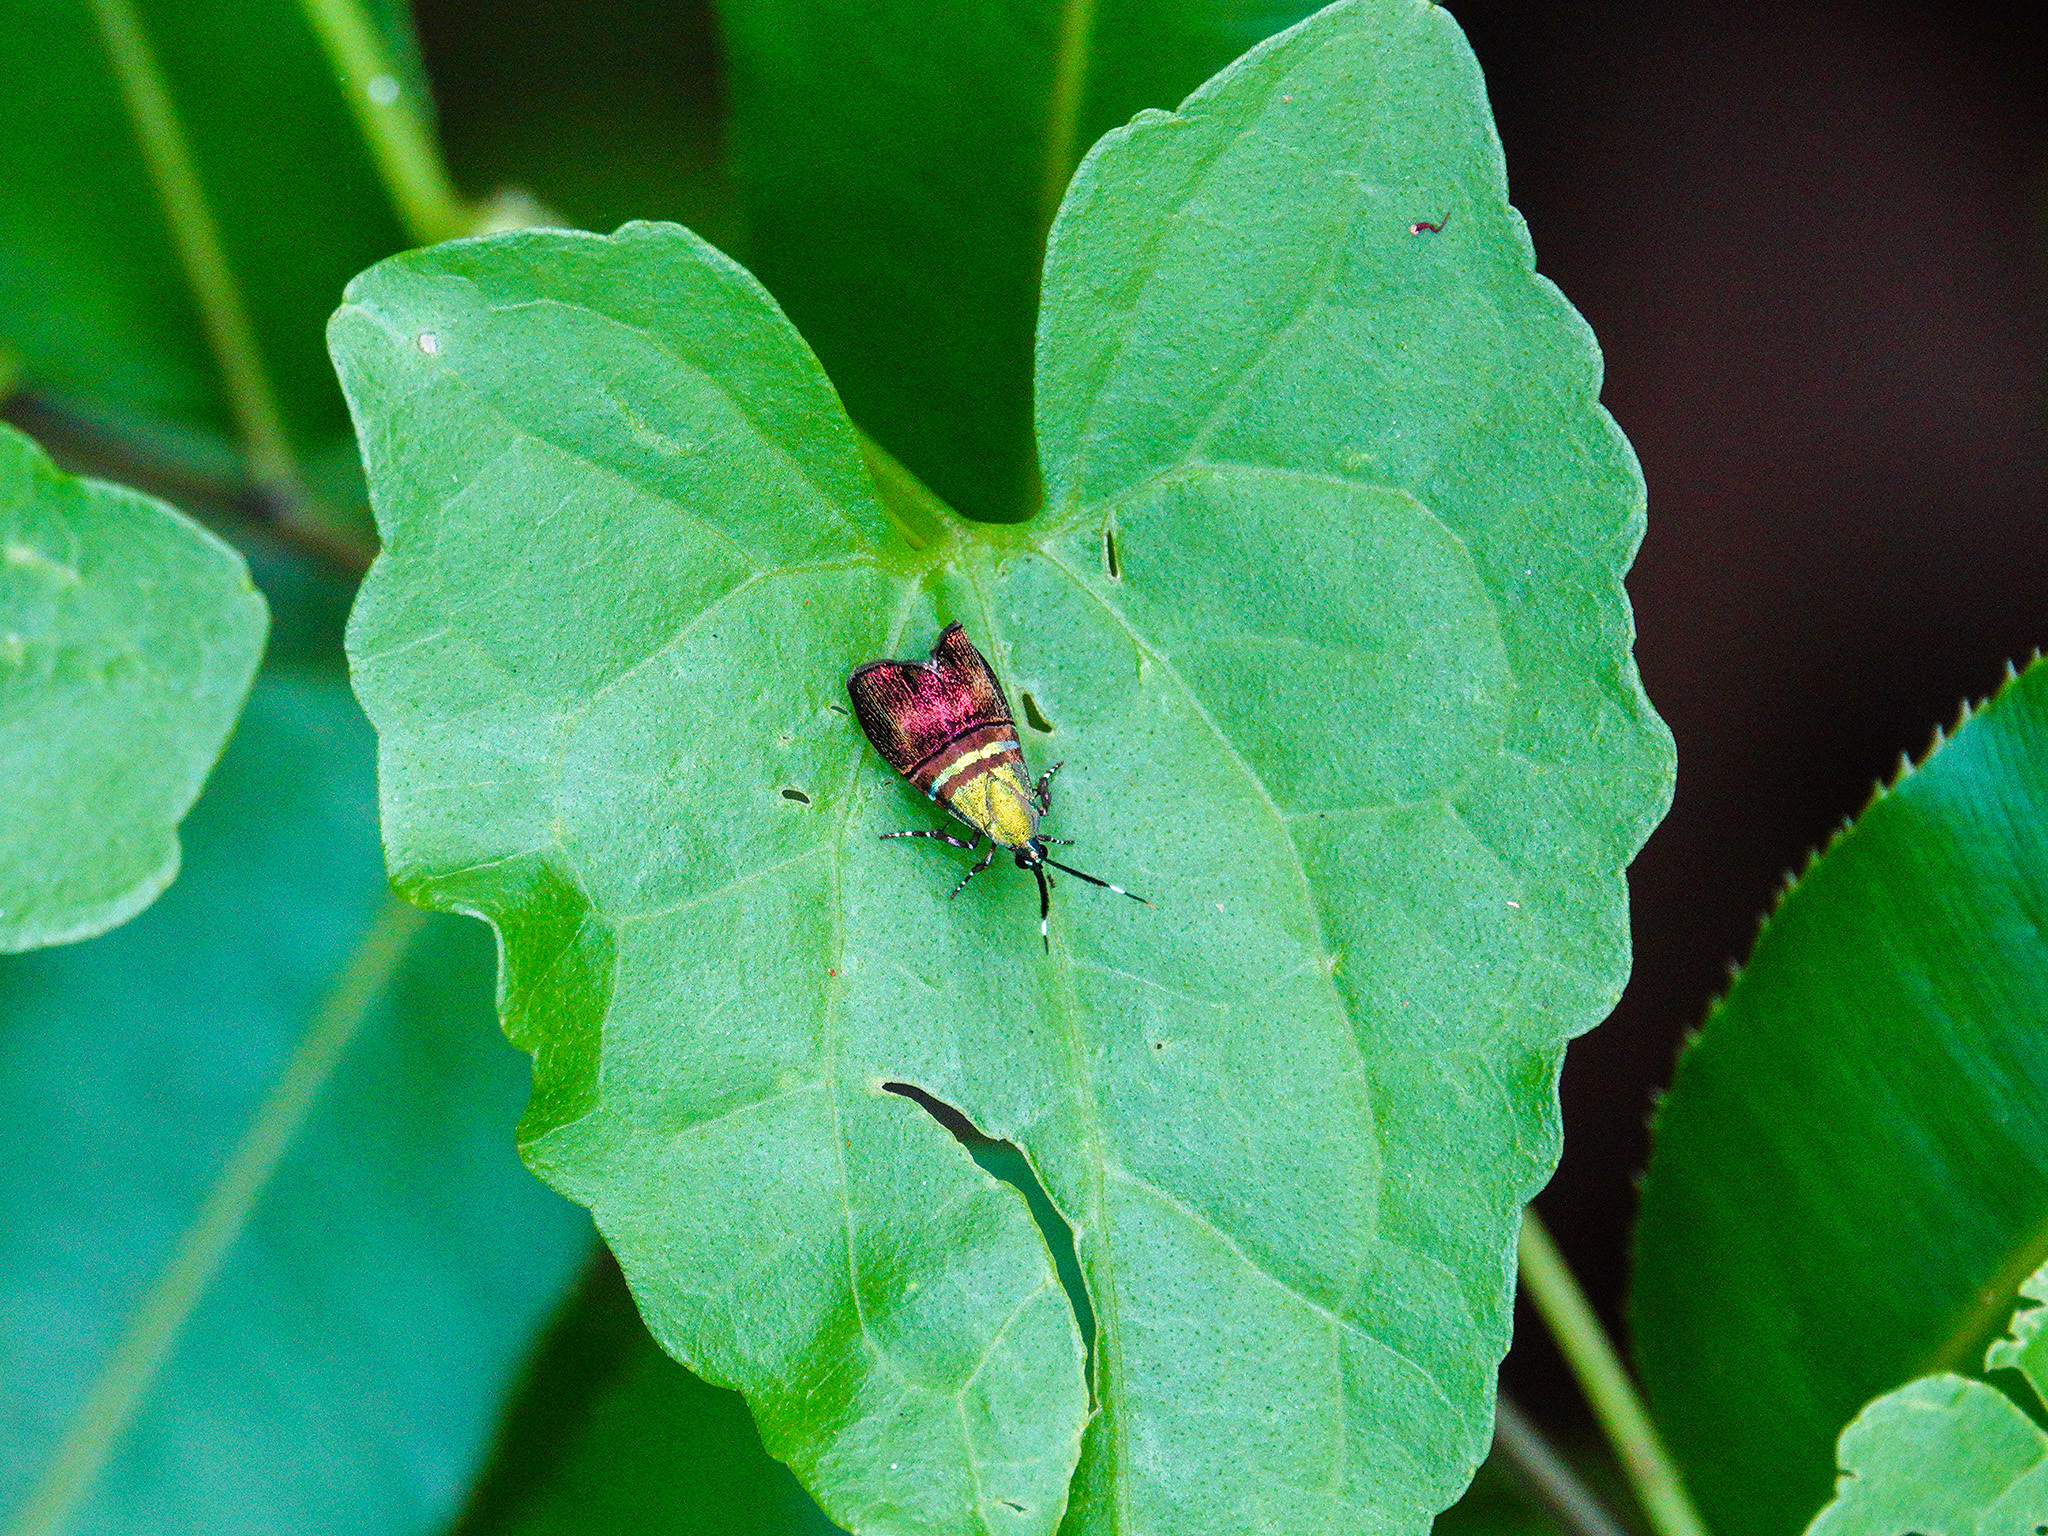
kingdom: Animalia
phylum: Arthropoda
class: Insecta
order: Lepidoptera
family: Choreutidae
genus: Saptha
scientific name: Saptha pretiosa
